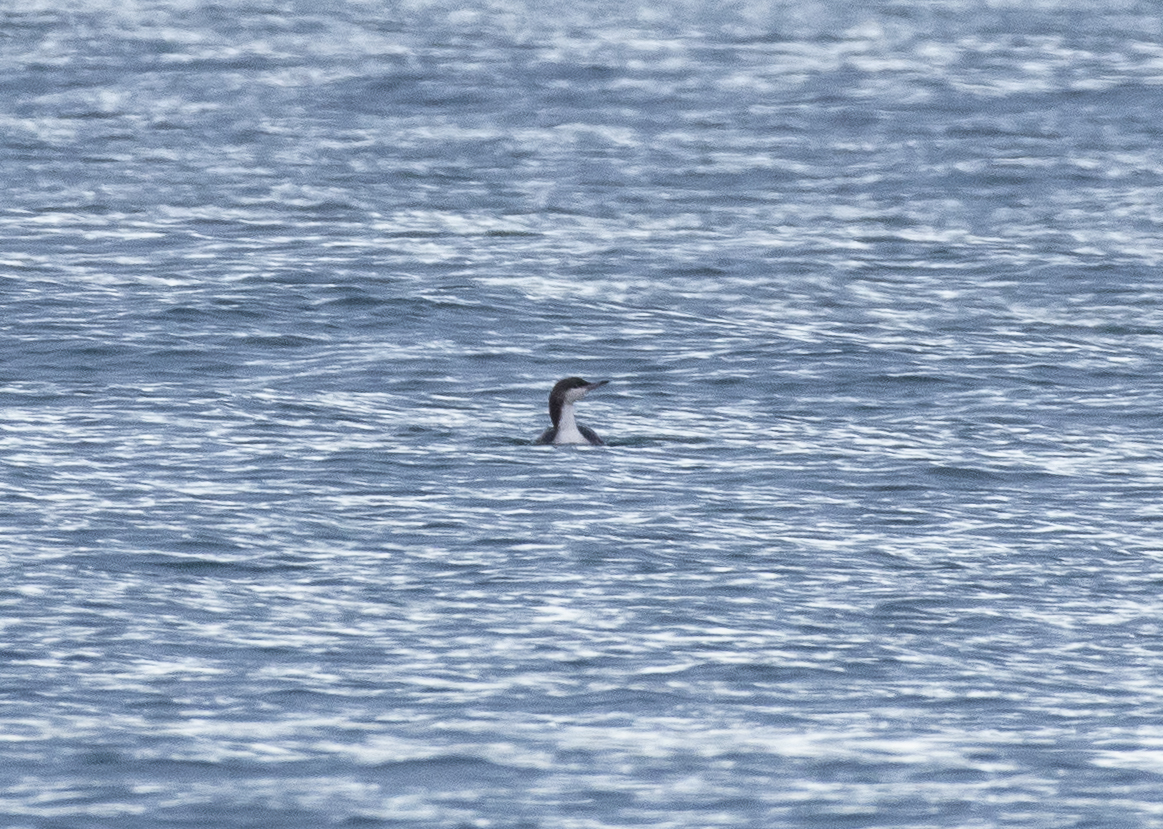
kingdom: Animalia
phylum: Chordata
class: Aves
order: Gaviiformes
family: Gaviidae
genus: Gavia
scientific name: Gavia arctica
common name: Black-throated loon
